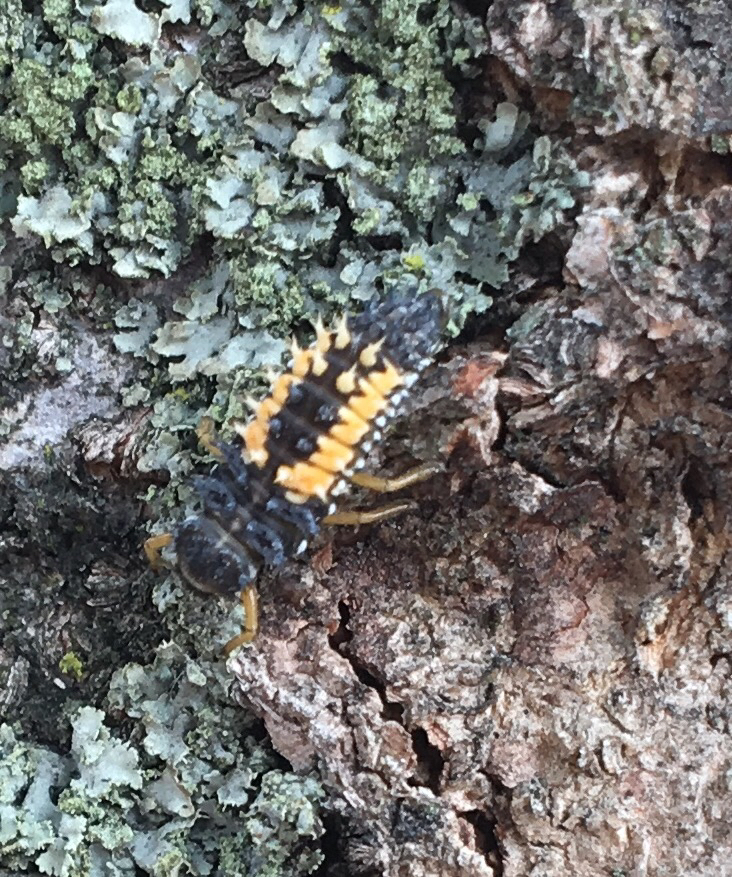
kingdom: Animalia
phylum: Arthropoda
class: Insecta
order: Coleoptera
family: Coccinellidae
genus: Harmonia
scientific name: Harmonia axyridis
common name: Harlequin ladybird
